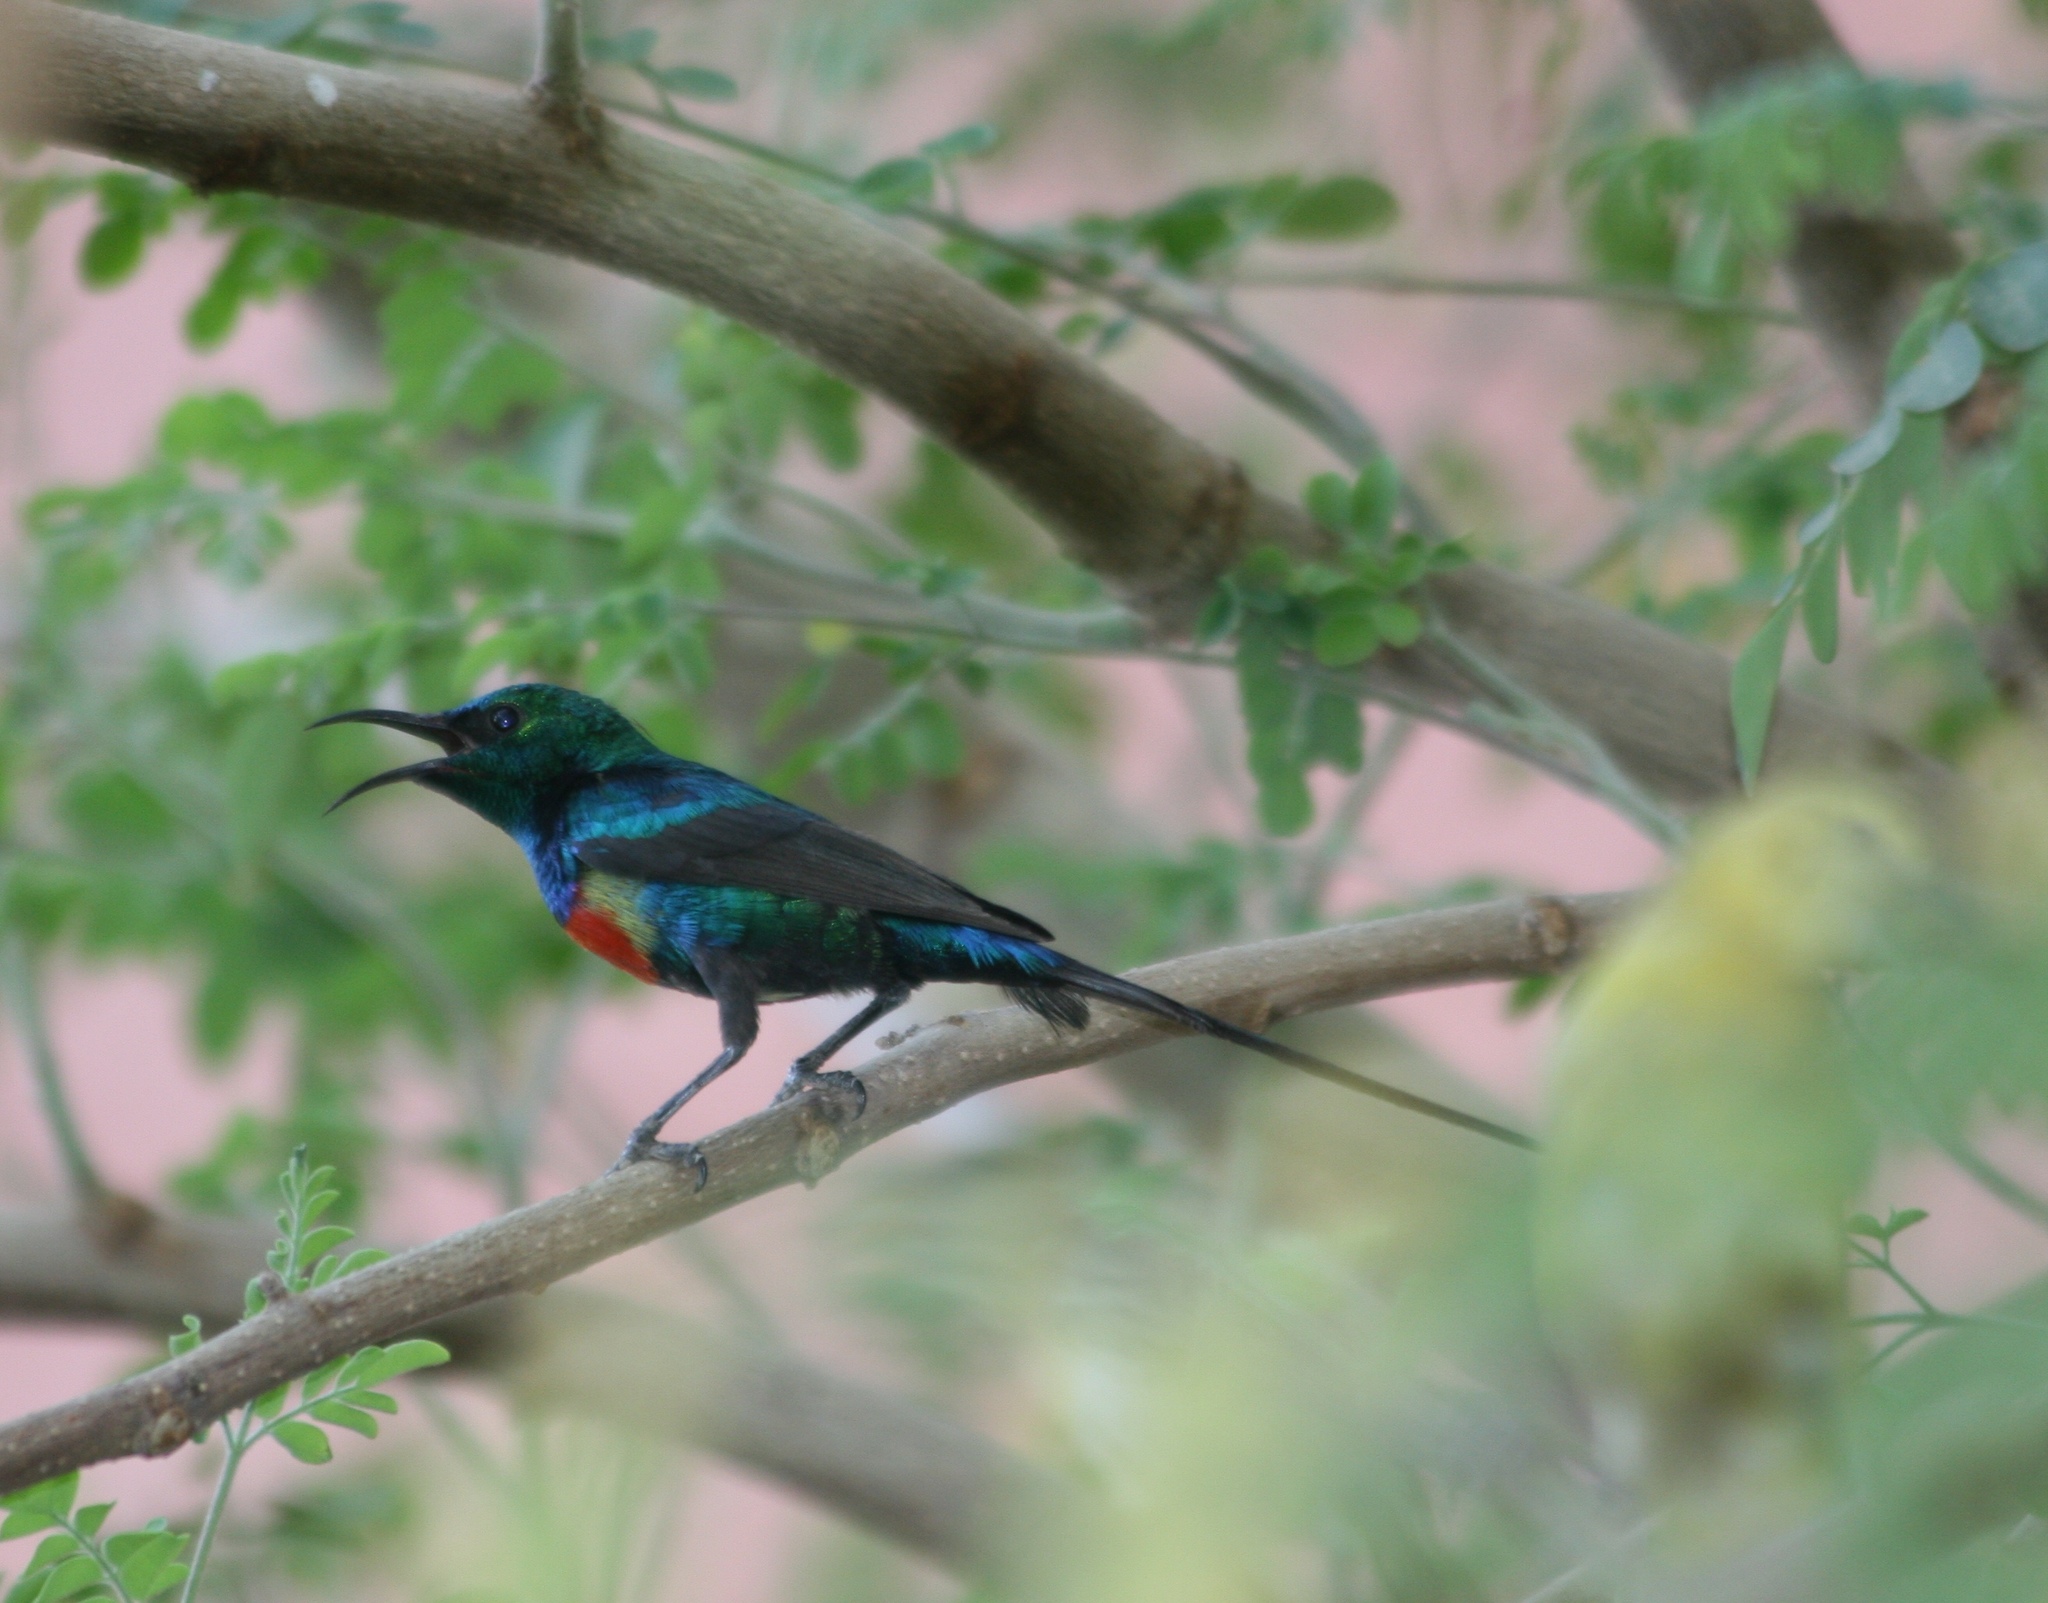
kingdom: Animalia
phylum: Chordata
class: Aves
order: Passeriformes
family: Nectariniidae
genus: Cinnyris
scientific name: Cinnyris pulchellus
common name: Beautiful sunbird
